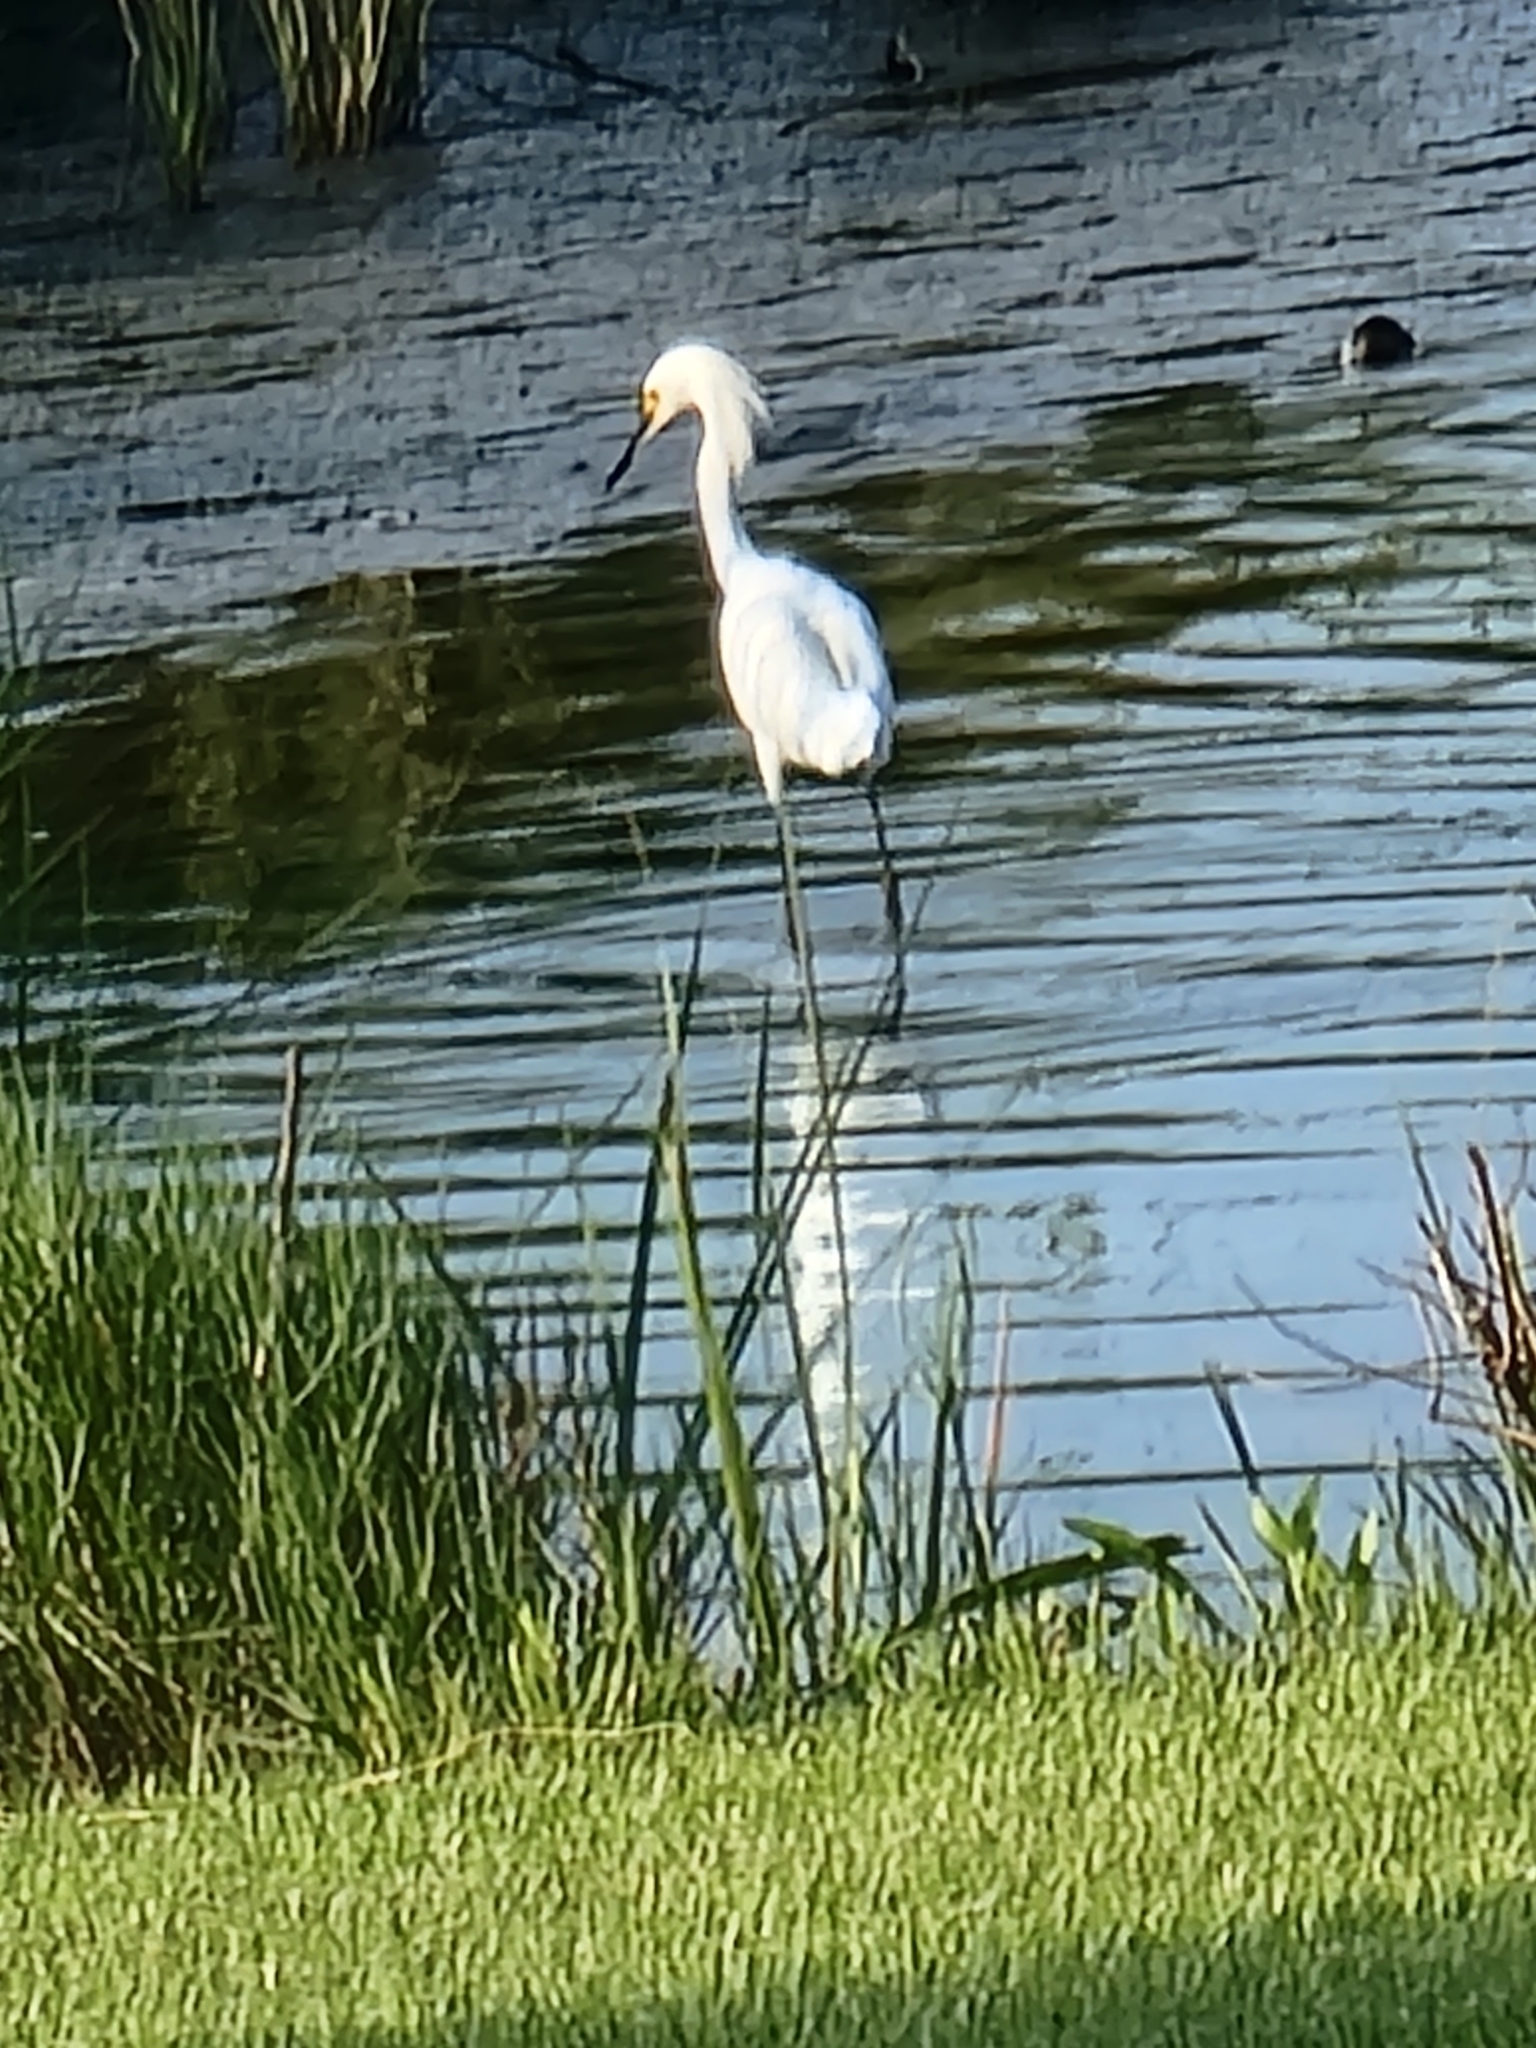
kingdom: Animalia
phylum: Chordata
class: Aves
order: Pelecaniformes
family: Ardeidae
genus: Egretta
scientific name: Egretta thula
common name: Snowy egret
